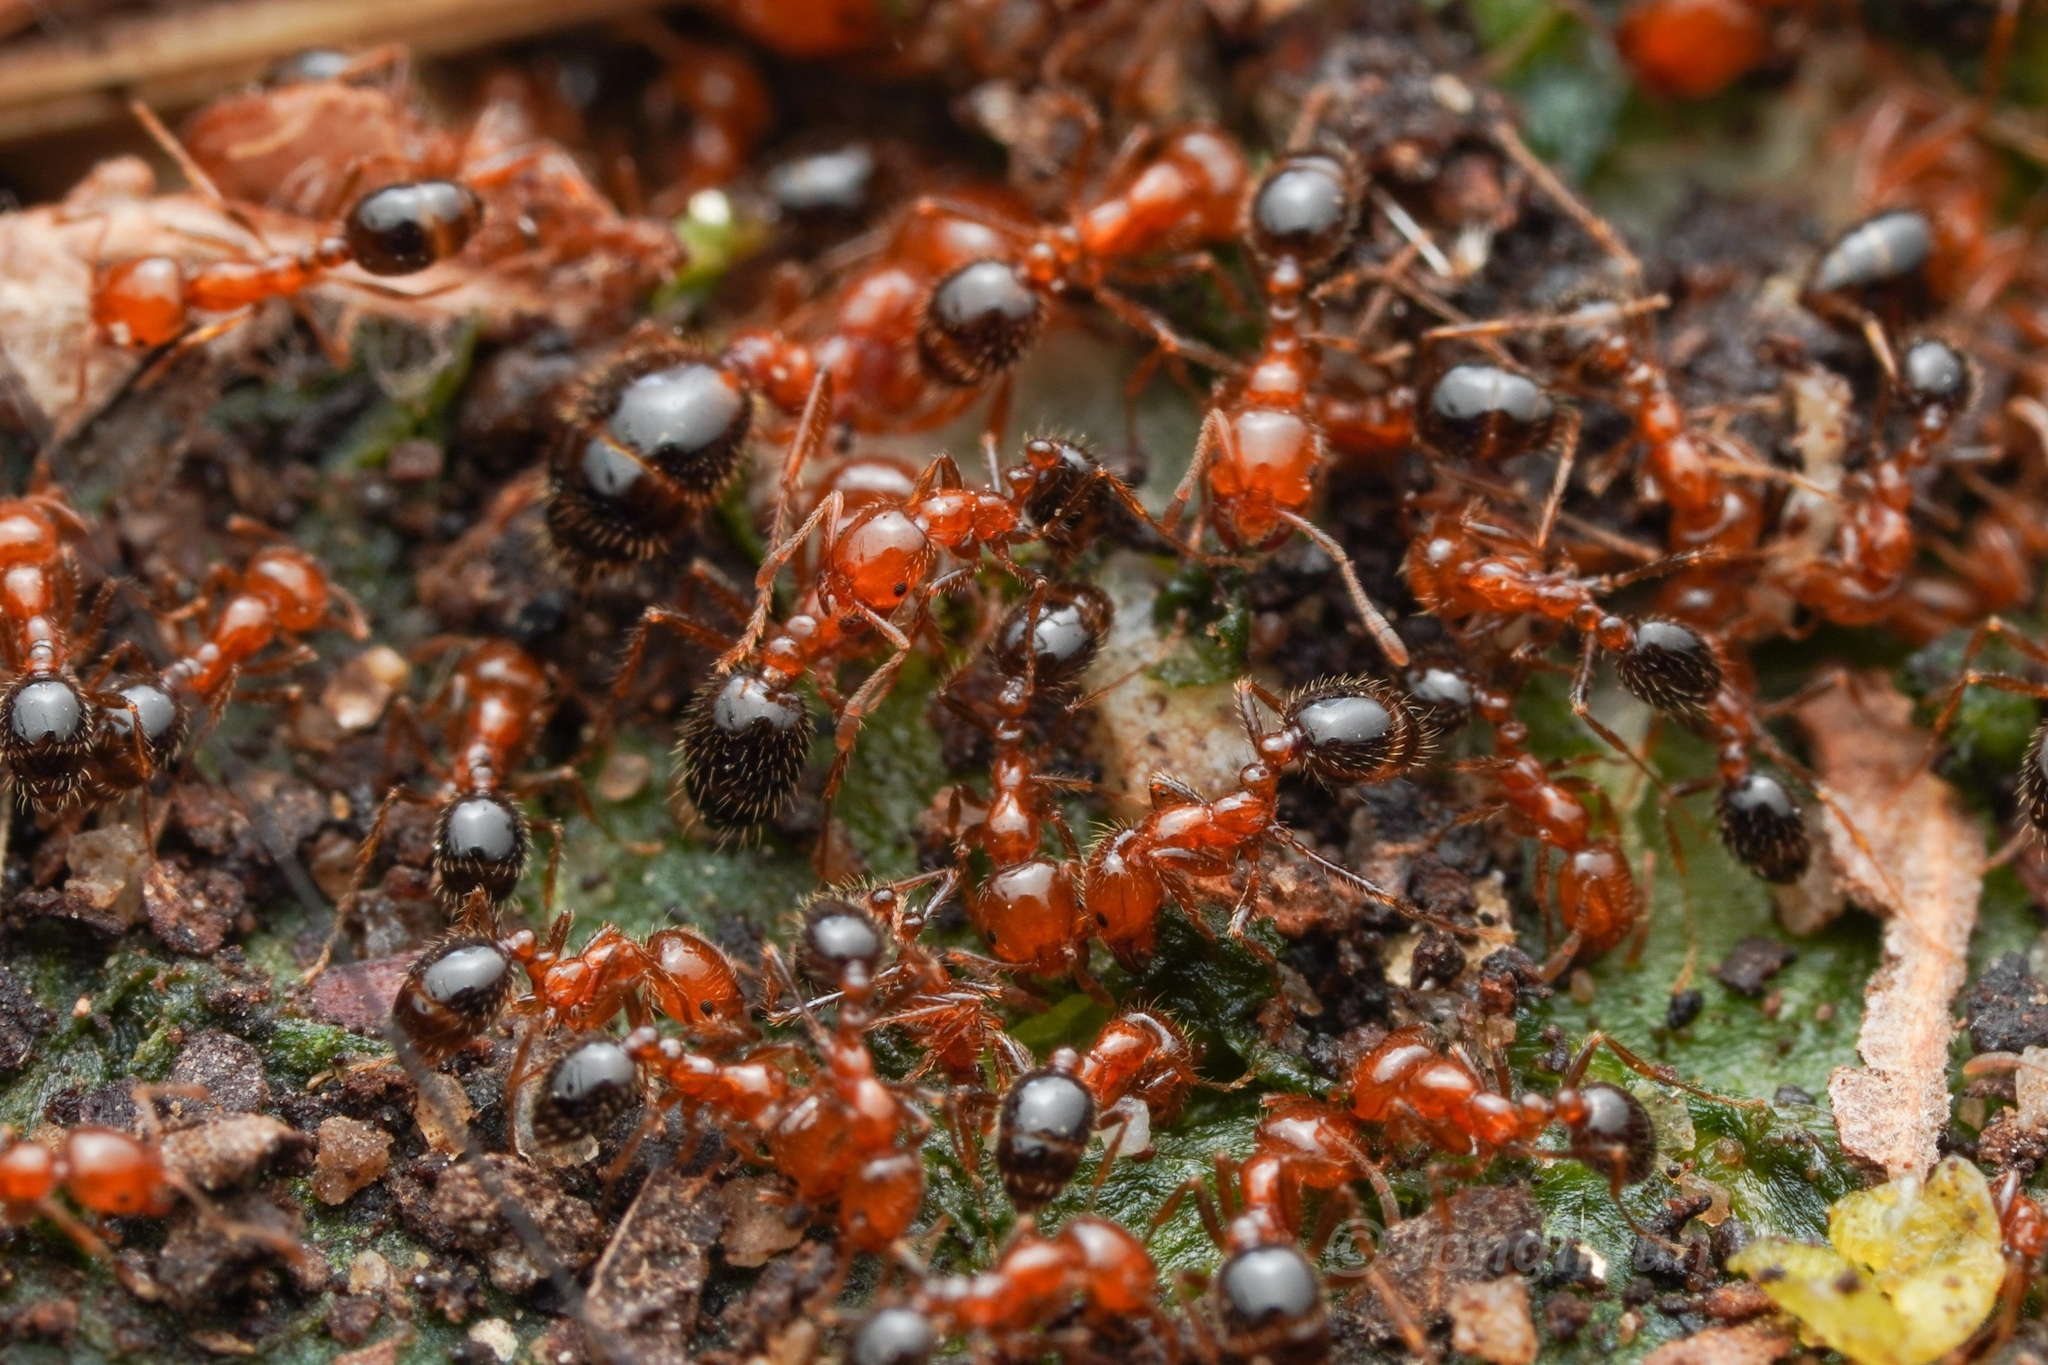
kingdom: Animalia
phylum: Arthropoda
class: Insecta
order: Hymenoptera
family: Formicidae
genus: Solenopsis
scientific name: Solenopsis xyloni
